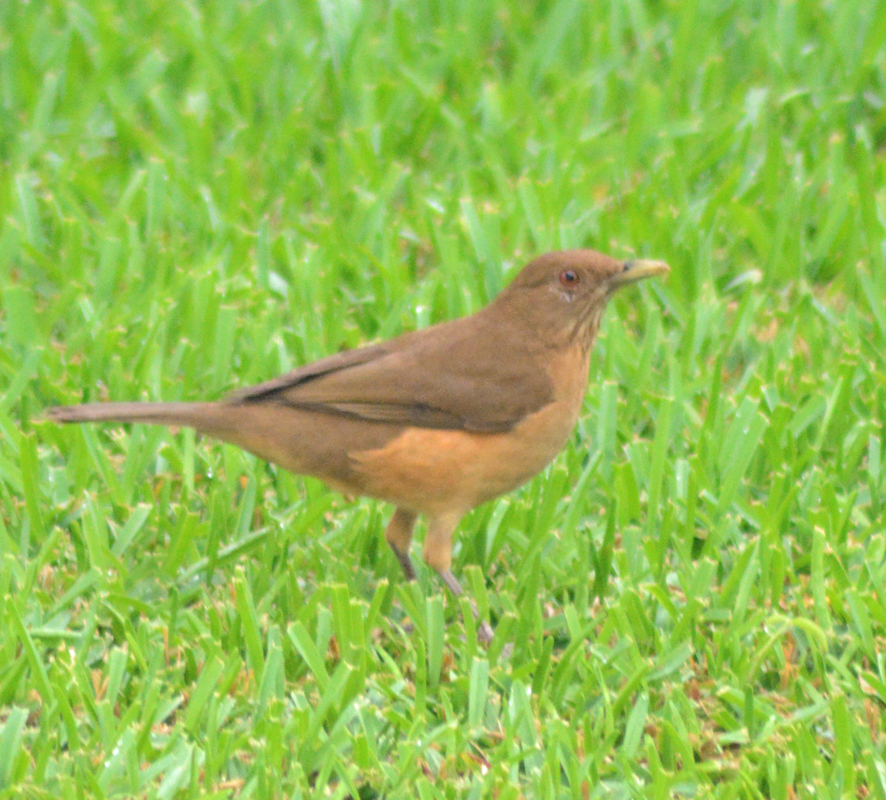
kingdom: Animalia
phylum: Chordata
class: Aves
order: Passeriformes
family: Turdidae
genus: Turdus
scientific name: Turdus grayi
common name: Clay-colored thrush
